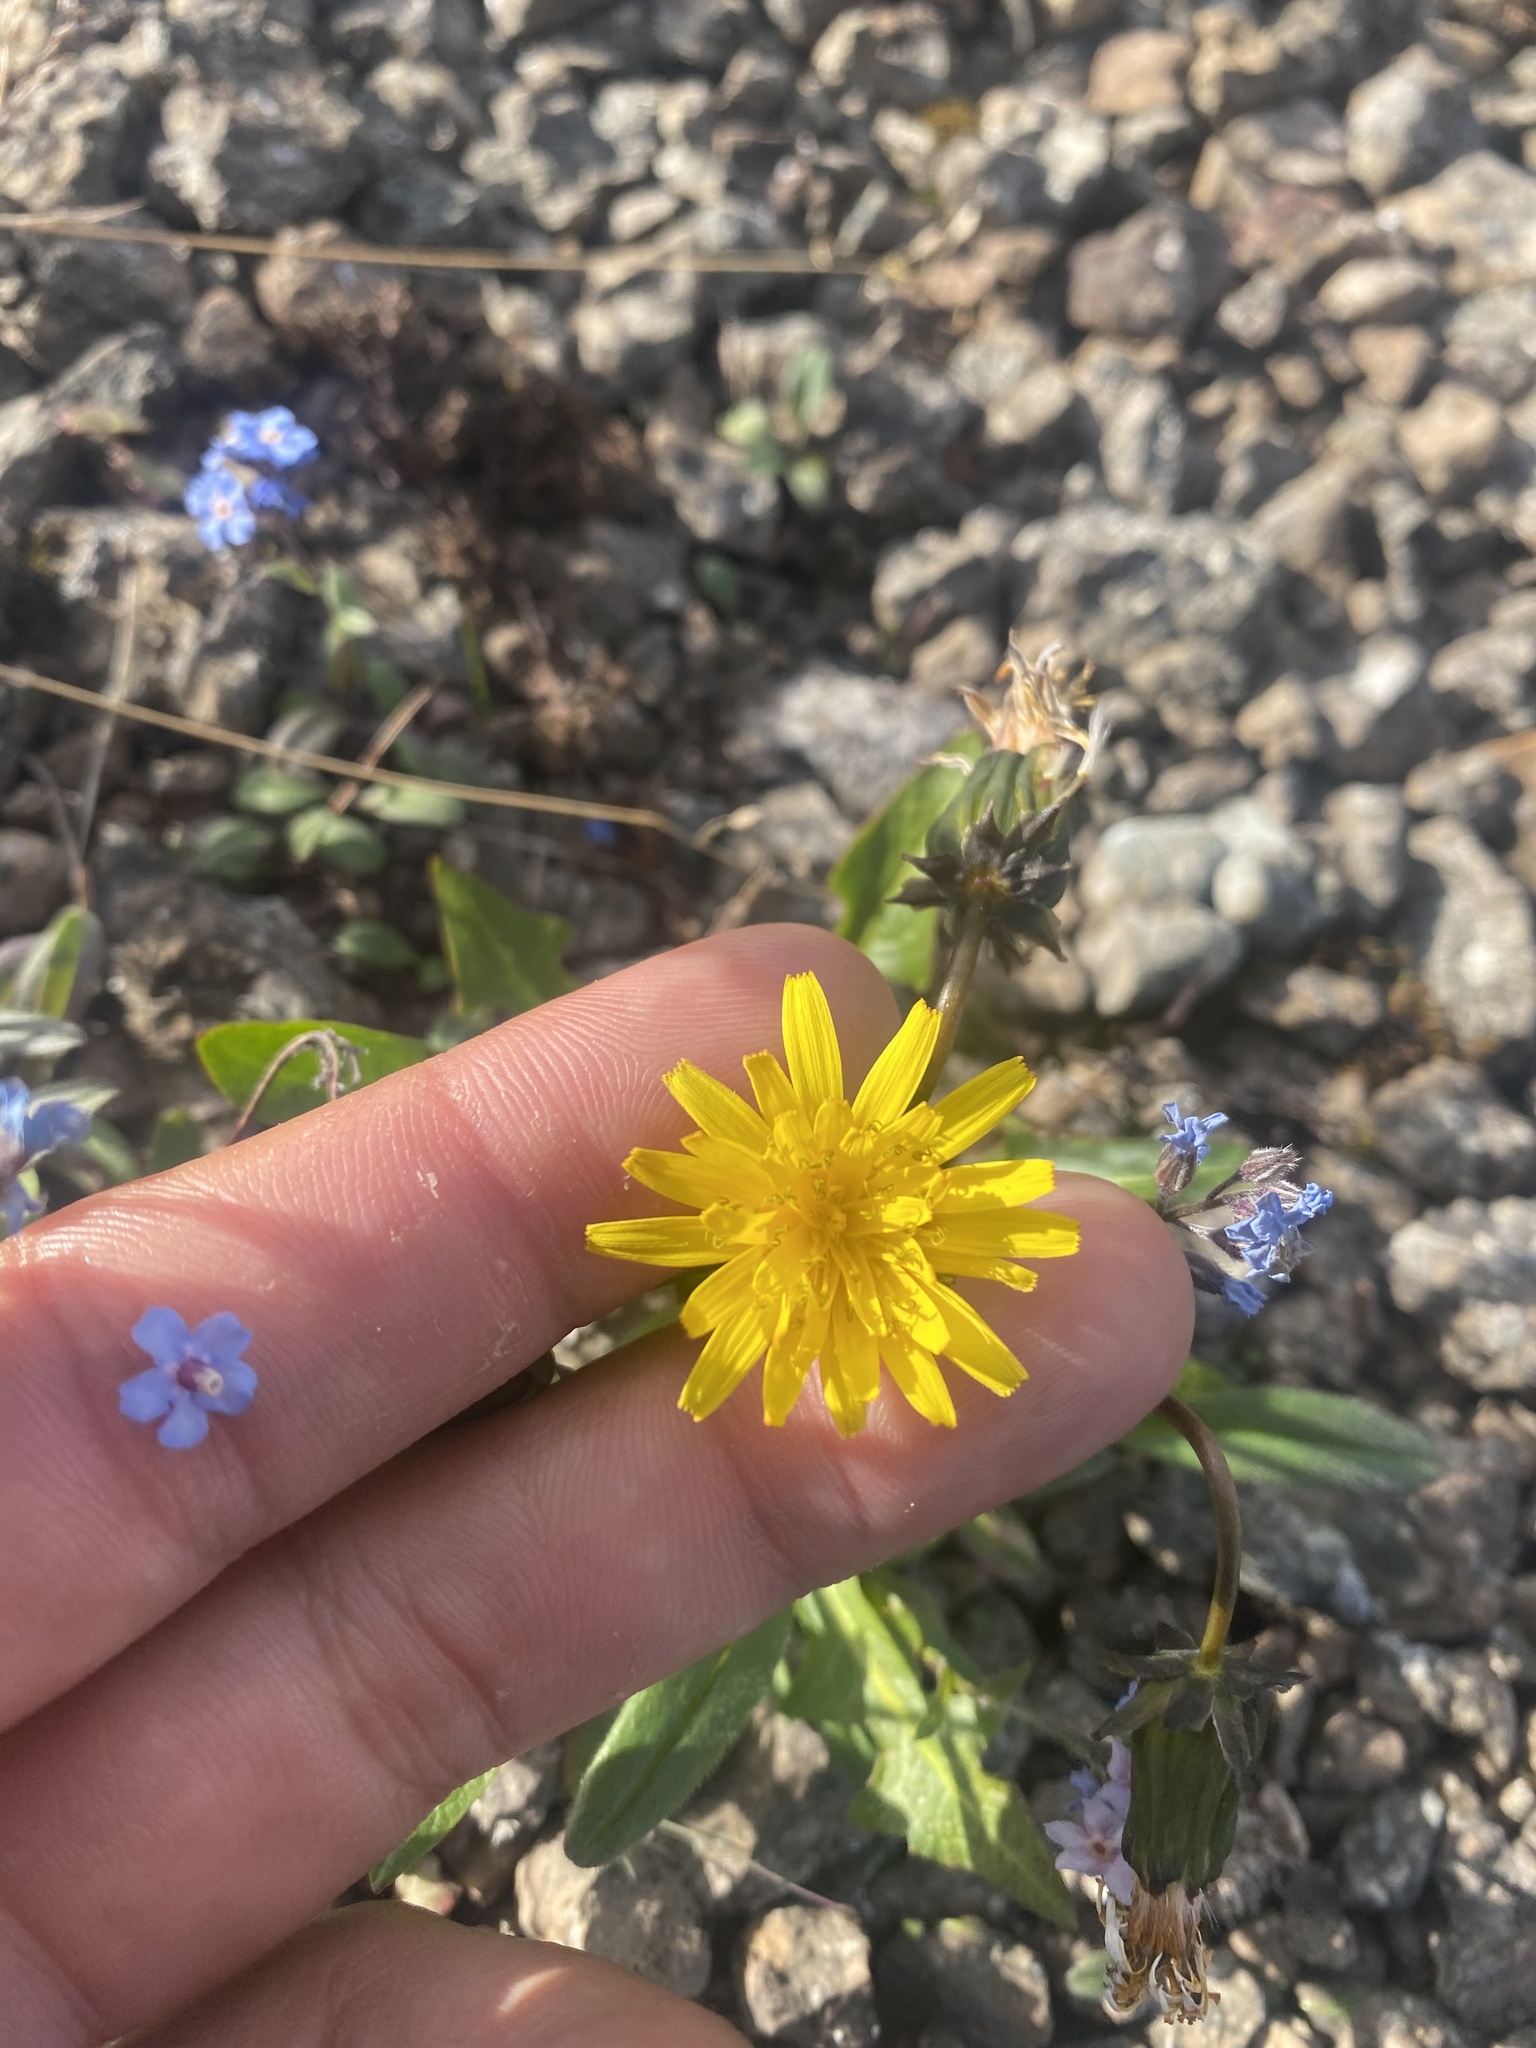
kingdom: Plantae
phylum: Tracheophyta
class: Magnoliopsida
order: Asterales
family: Asteraceae
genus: Taraxacum
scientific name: Taraxacum glabrum
